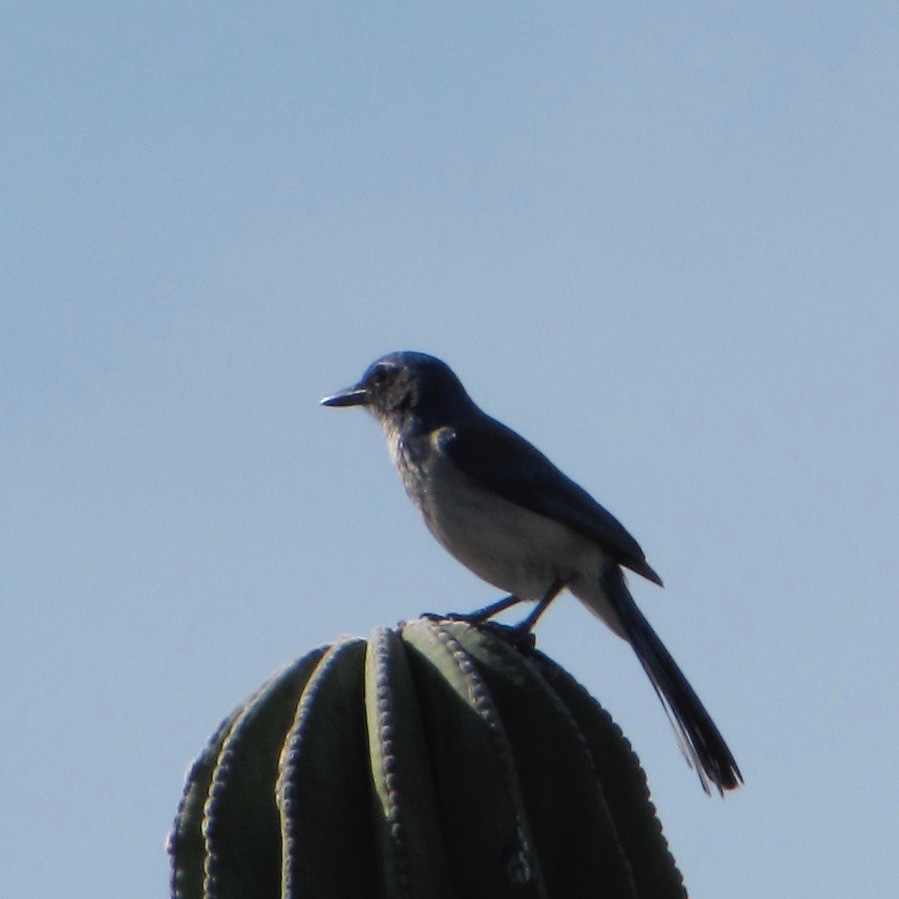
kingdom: Animalia
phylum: Chordata
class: Aves
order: Passeriformes
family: Corvidae
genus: Aphelocoma
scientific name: Aphelocoma californica
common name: California scrub-jay
